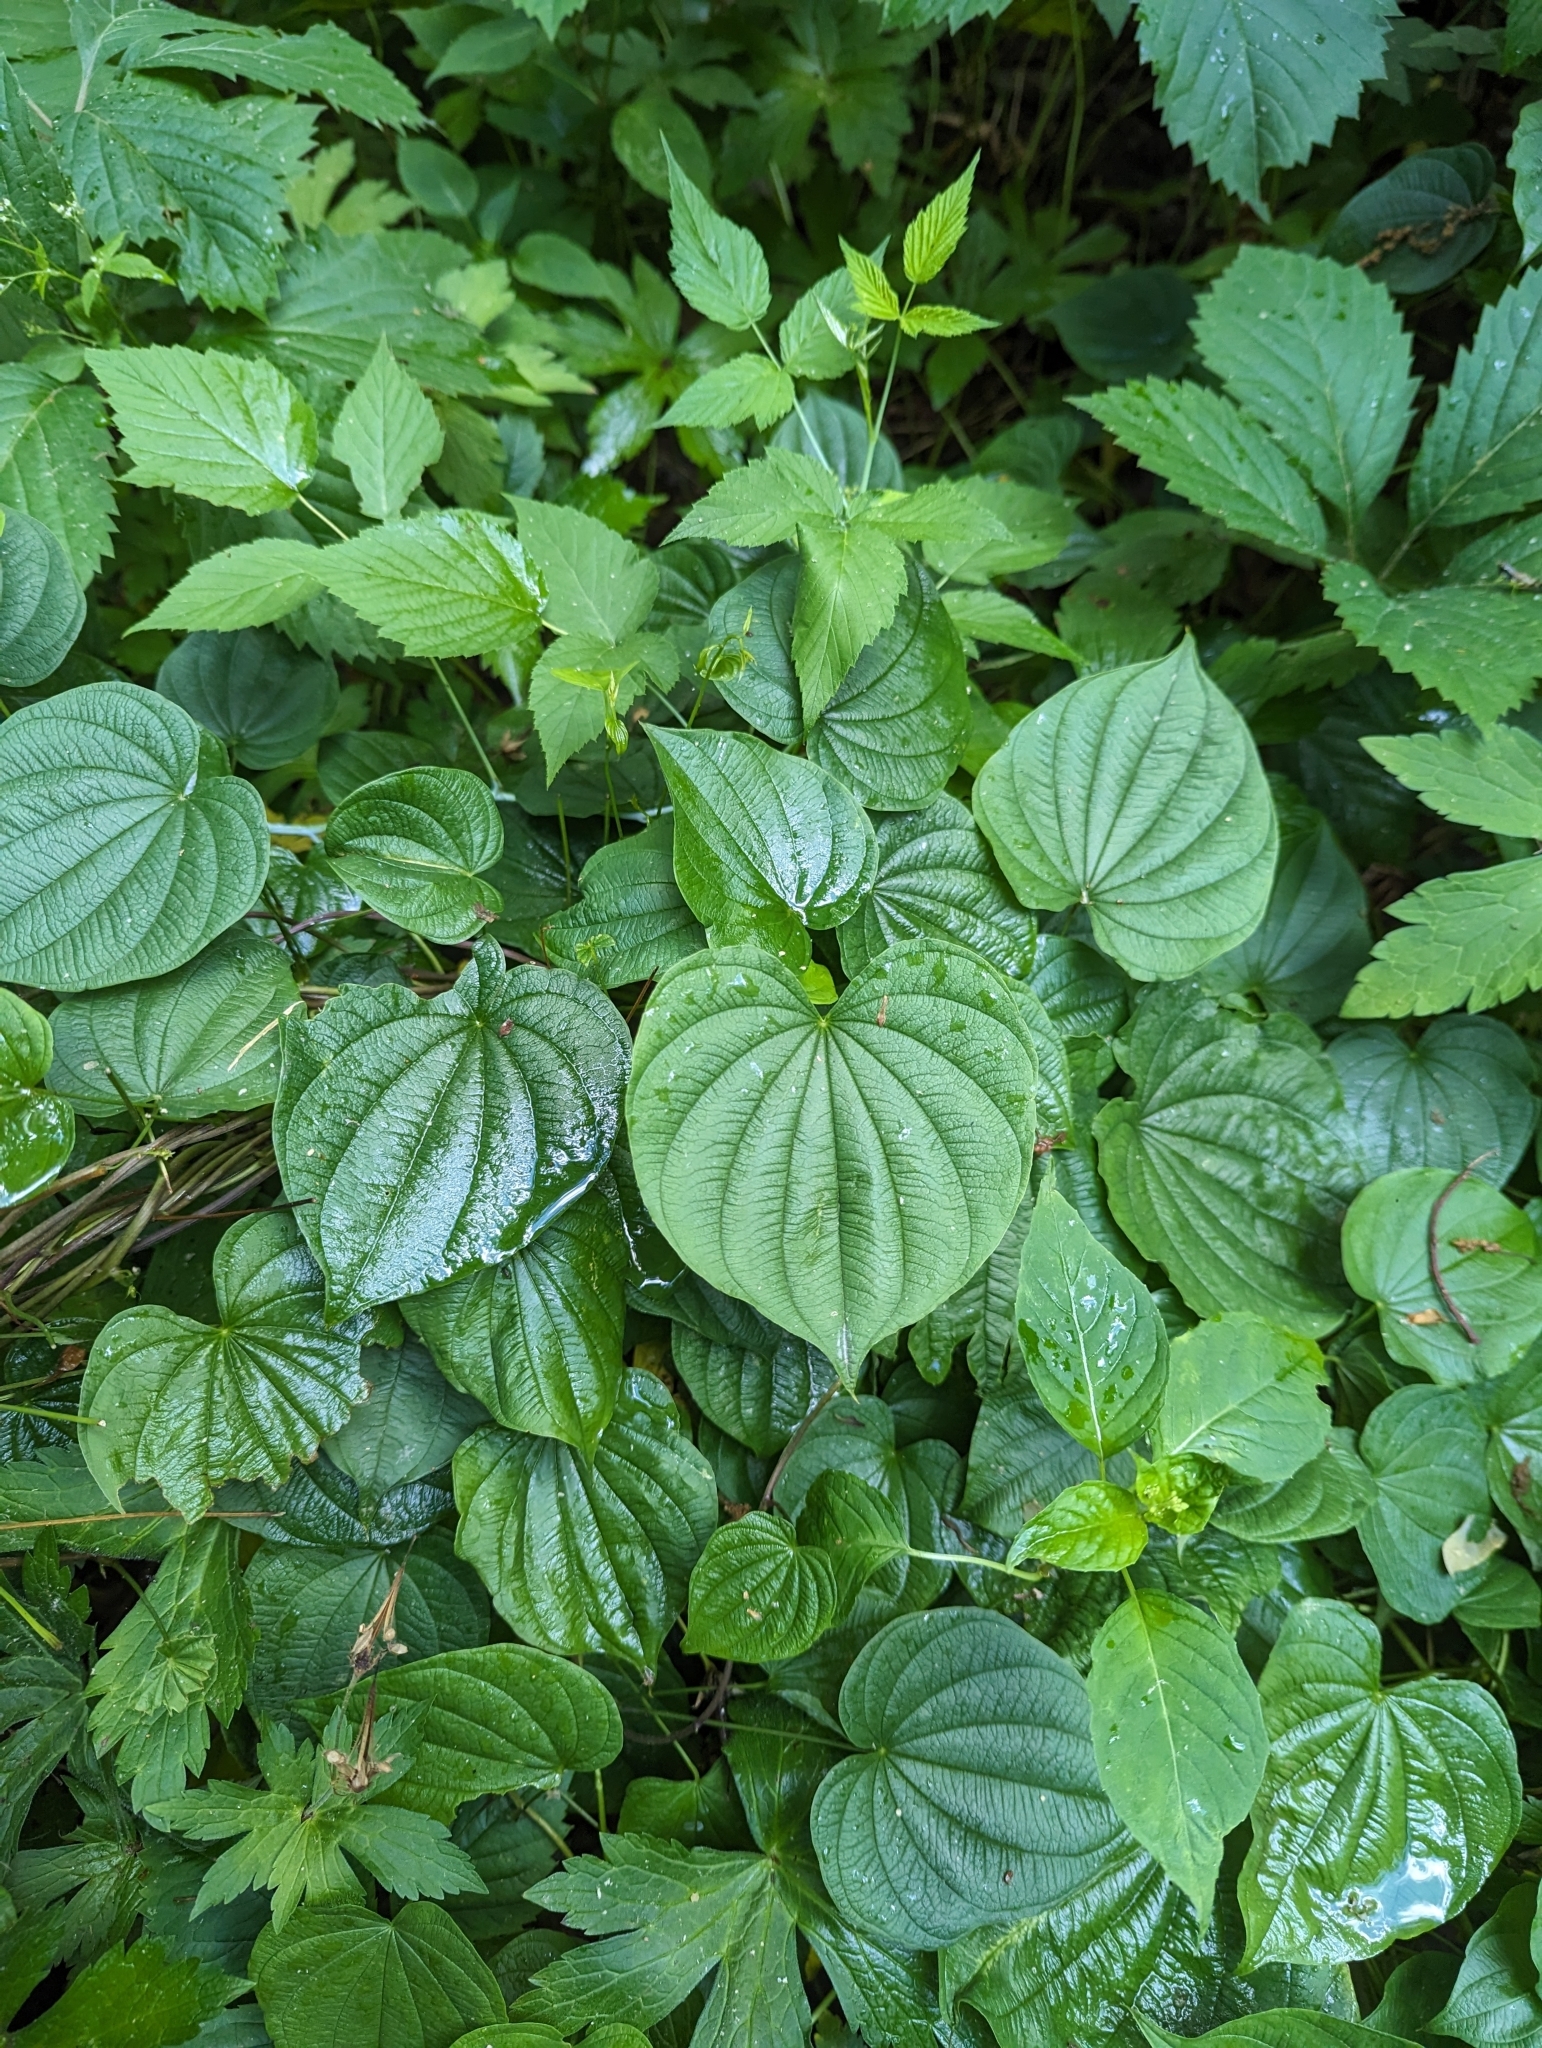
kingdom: Plantae
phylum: Tracheophyta
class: Liliopsida
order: Dioscoreales
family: Dioscoreaceae
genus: Dioscorea
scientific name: Dioscorea villosa
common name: Wild yam
